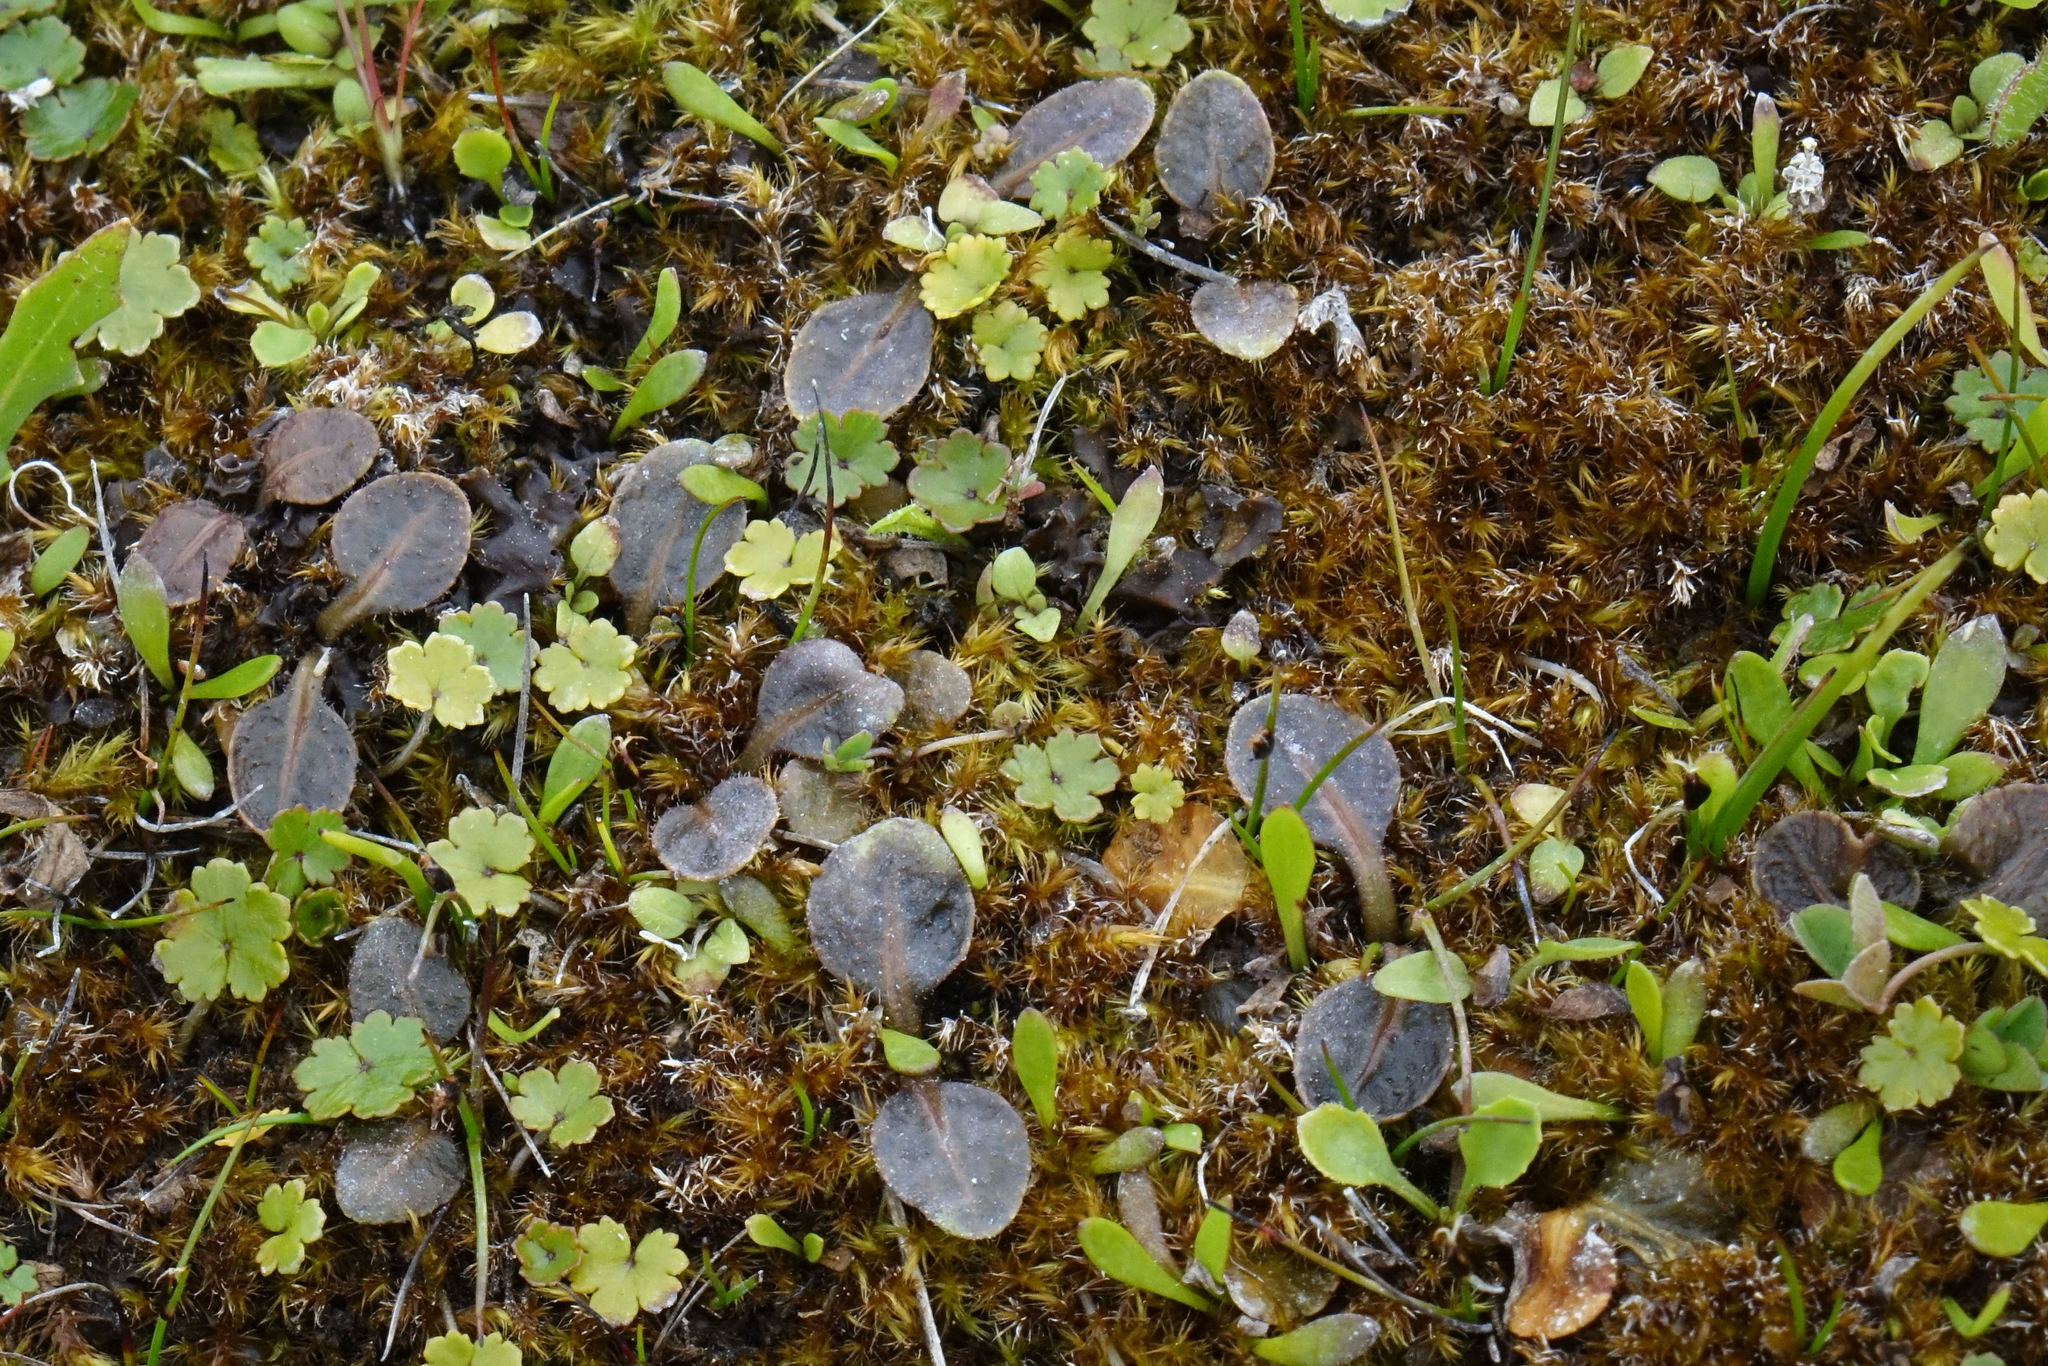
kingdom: Plantae
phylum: Tracheophyta
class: Magnoliopsida
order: Lamiales
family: Mazaceae
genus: Mazus
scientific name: Mazus arenarius
